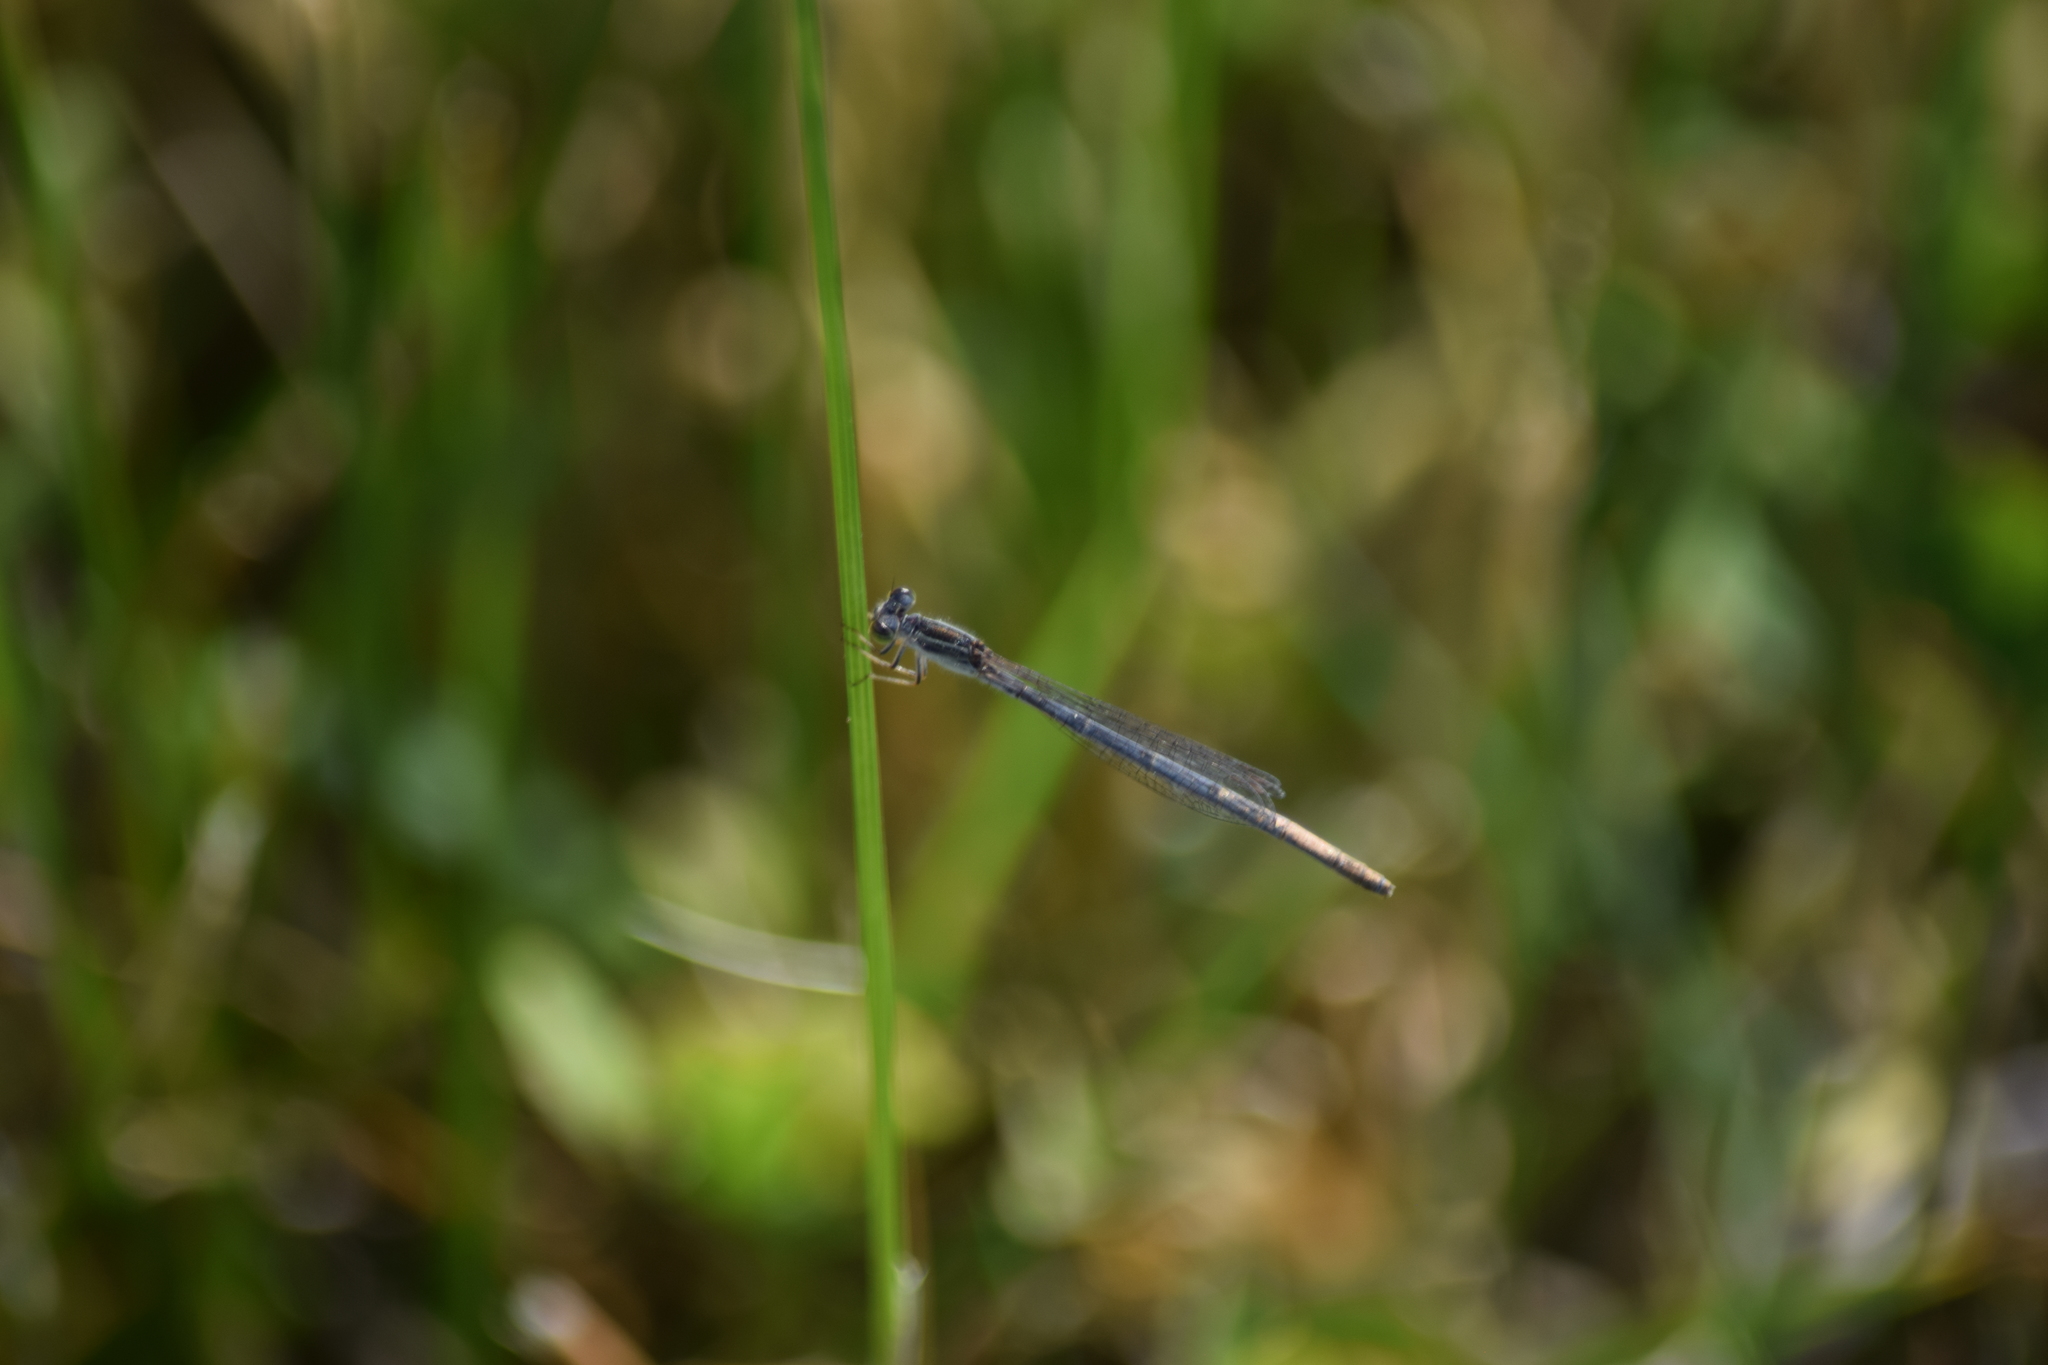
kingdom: Animalia
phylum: Arthropoda
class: Insecta
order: Odonata
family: Coenagrionidae
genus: Ischnura
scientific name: Ischnura hastata
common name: Citrine forktail
